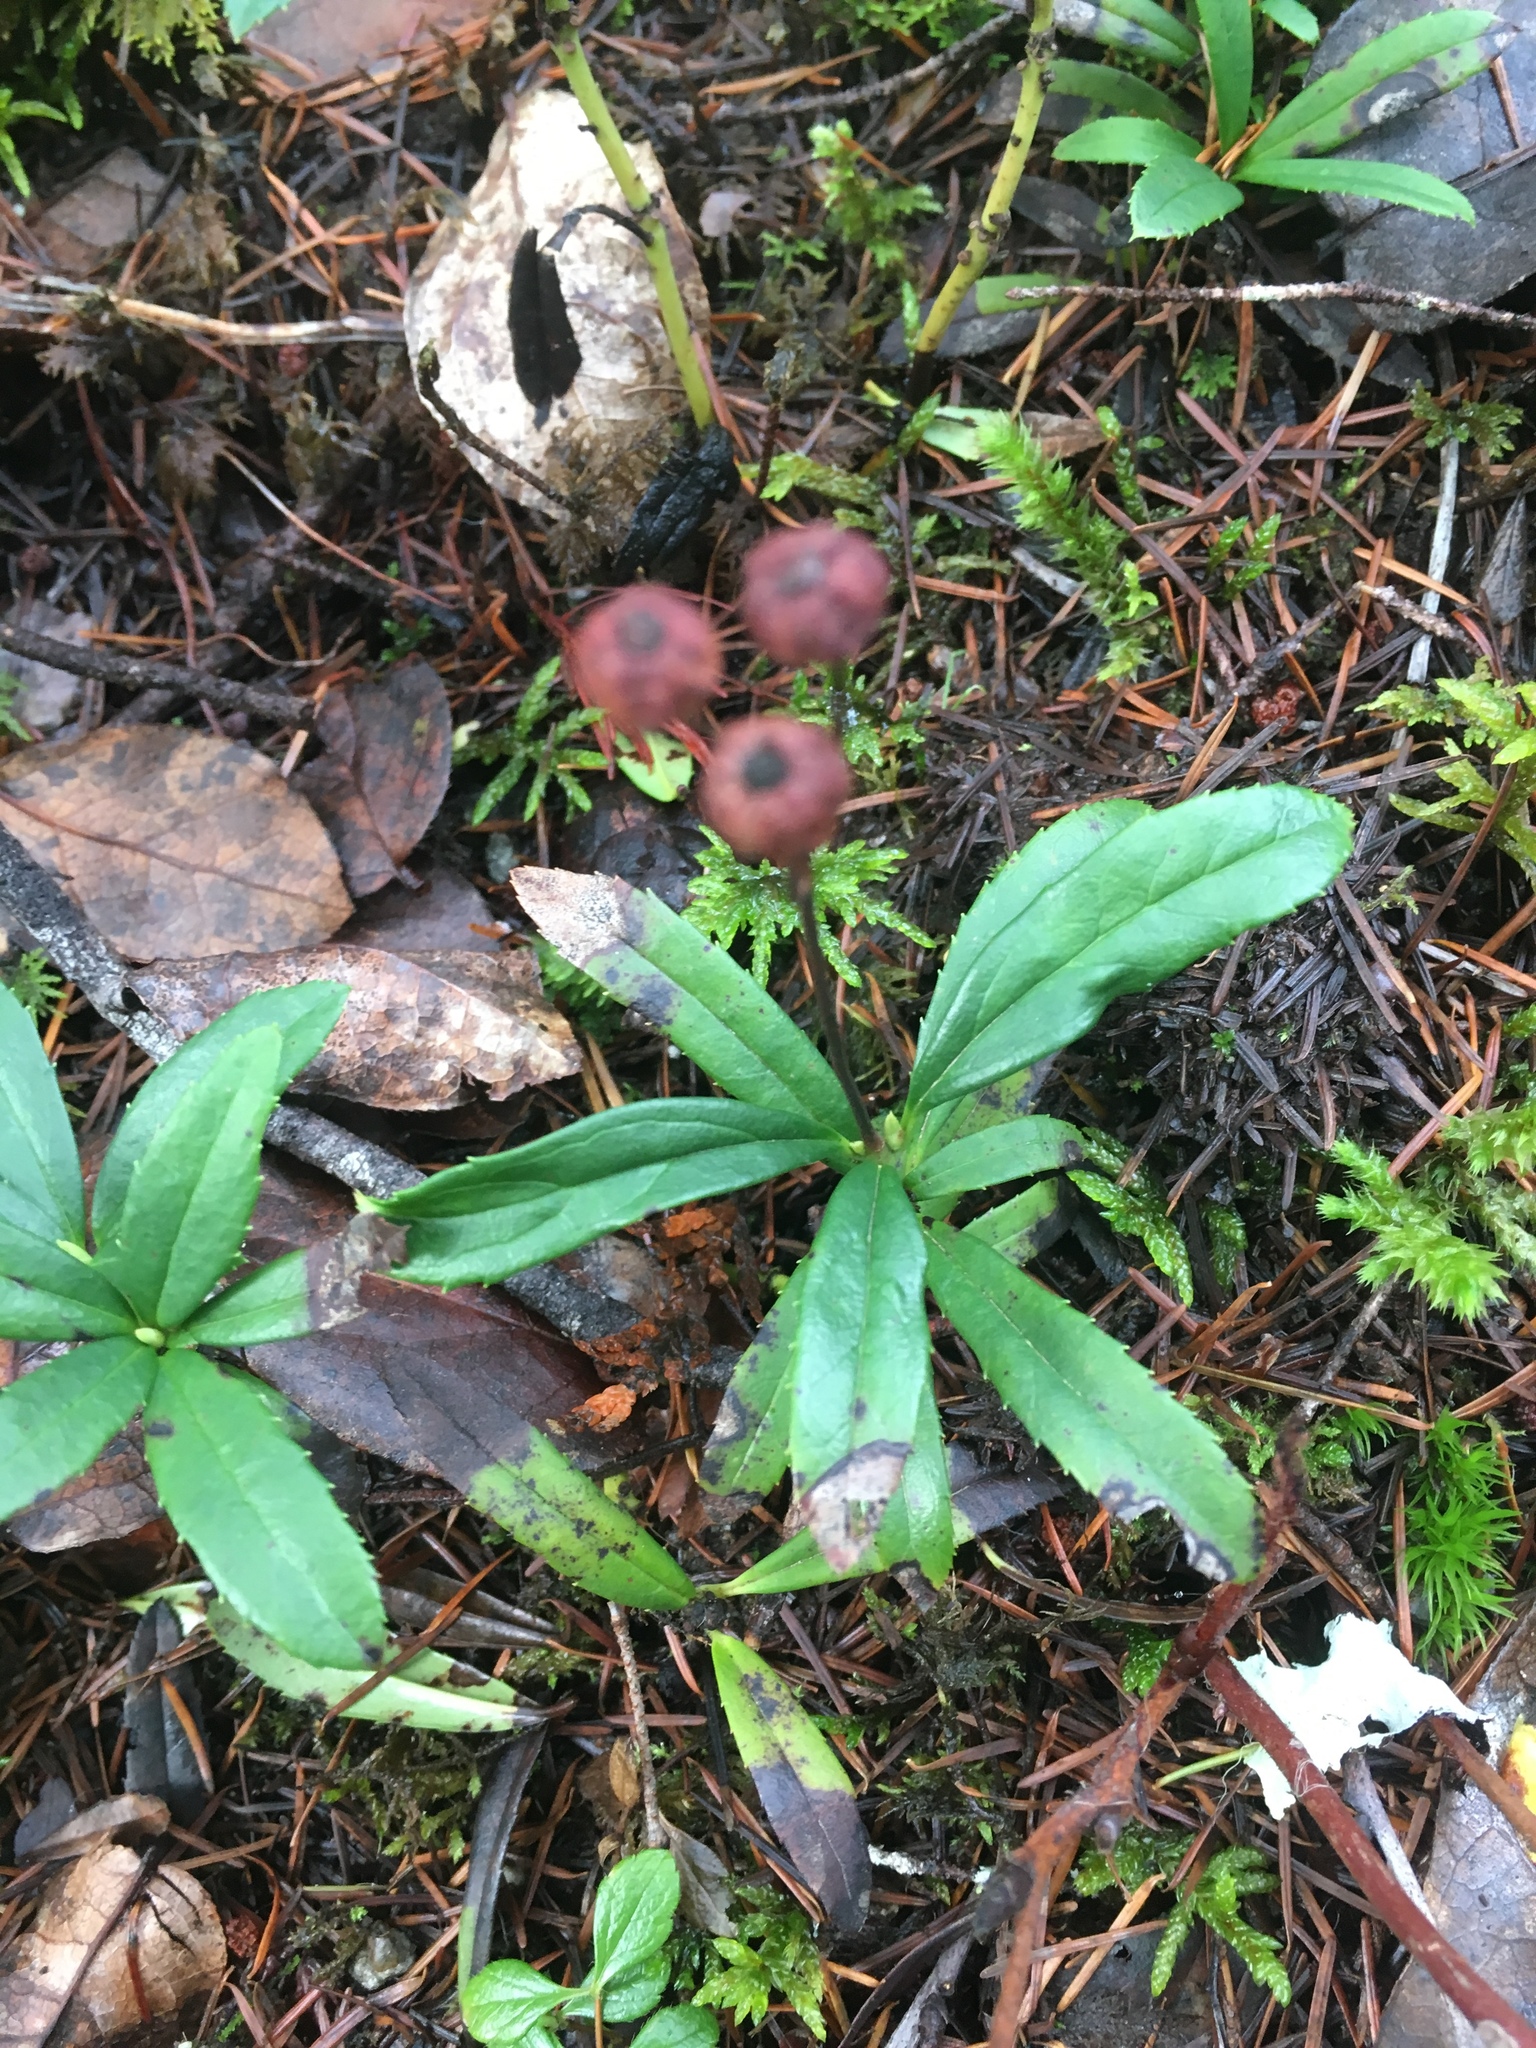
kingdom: Plantae
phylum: Tracheophyta
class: Magnoliopsida
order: Ericales
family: Ericaceae
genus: Chimaphila
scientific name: Chimaphila umbellata
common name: Pipsissewa
